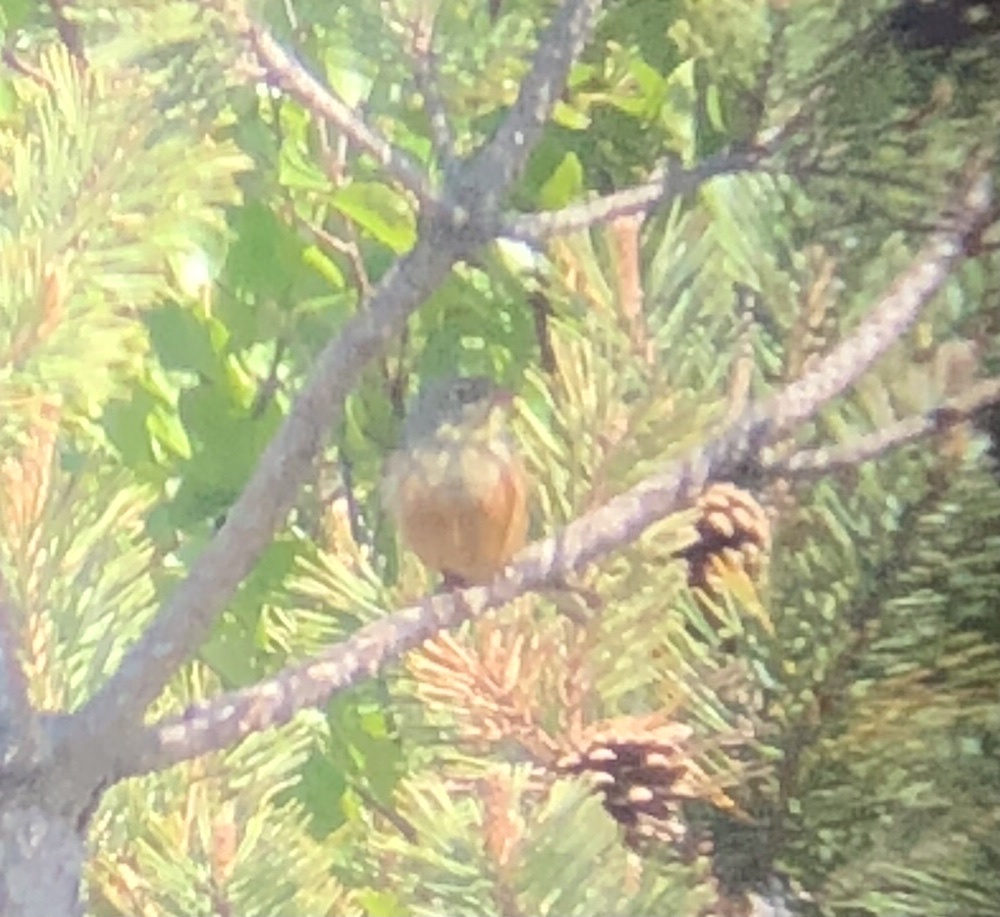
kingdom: Animalia
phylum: Chordata
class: Aves
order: Passeriformes
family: Emberizidae
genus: Emberiza
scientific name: Emberiza hortulana
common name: Ortolan bunting
